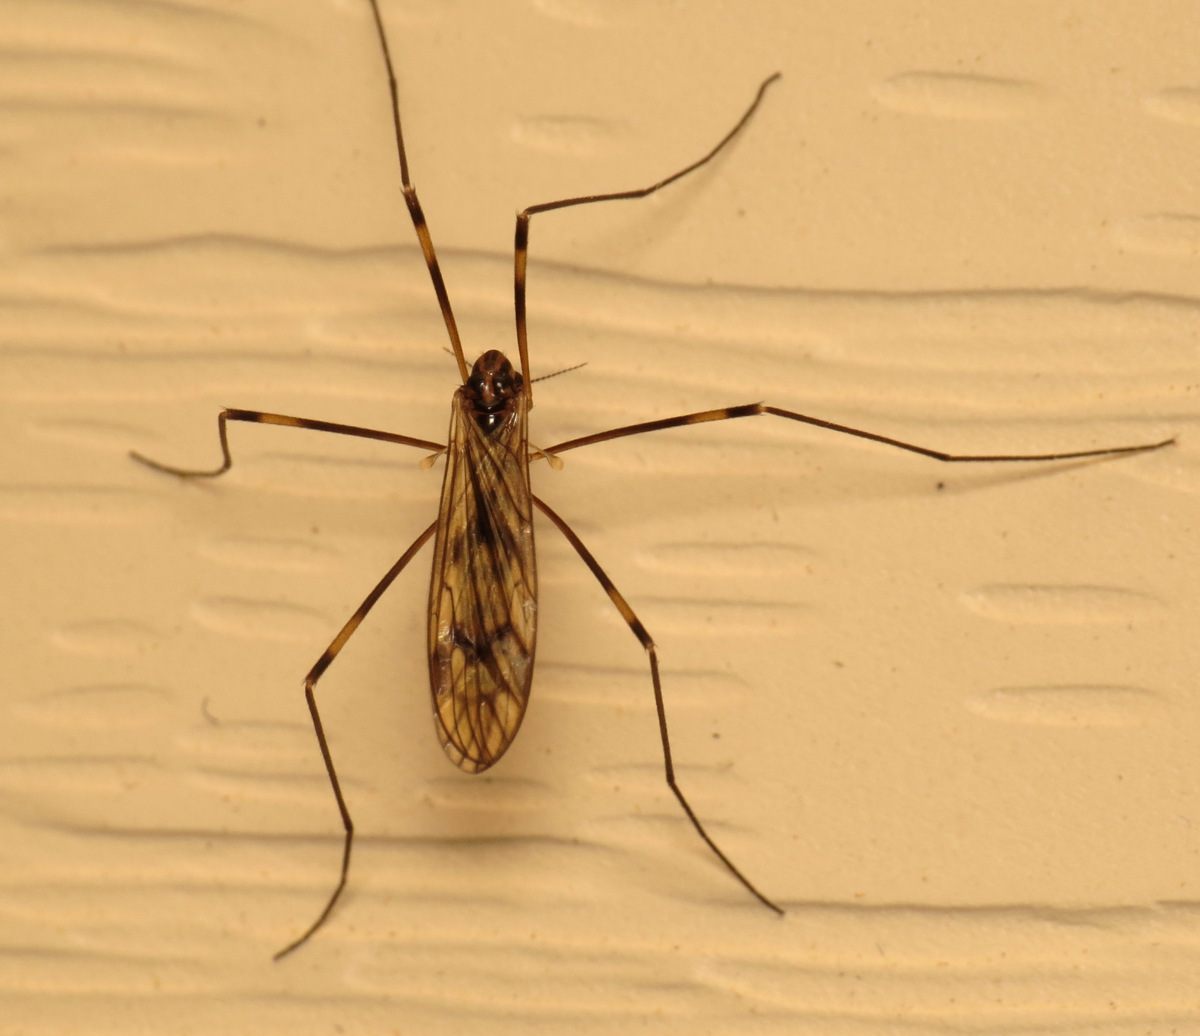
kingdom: Animalia
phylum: Arthropoda
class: Insecta
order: Diptera
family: Limoniidae
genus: Limonia
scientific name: Limonia indigena
